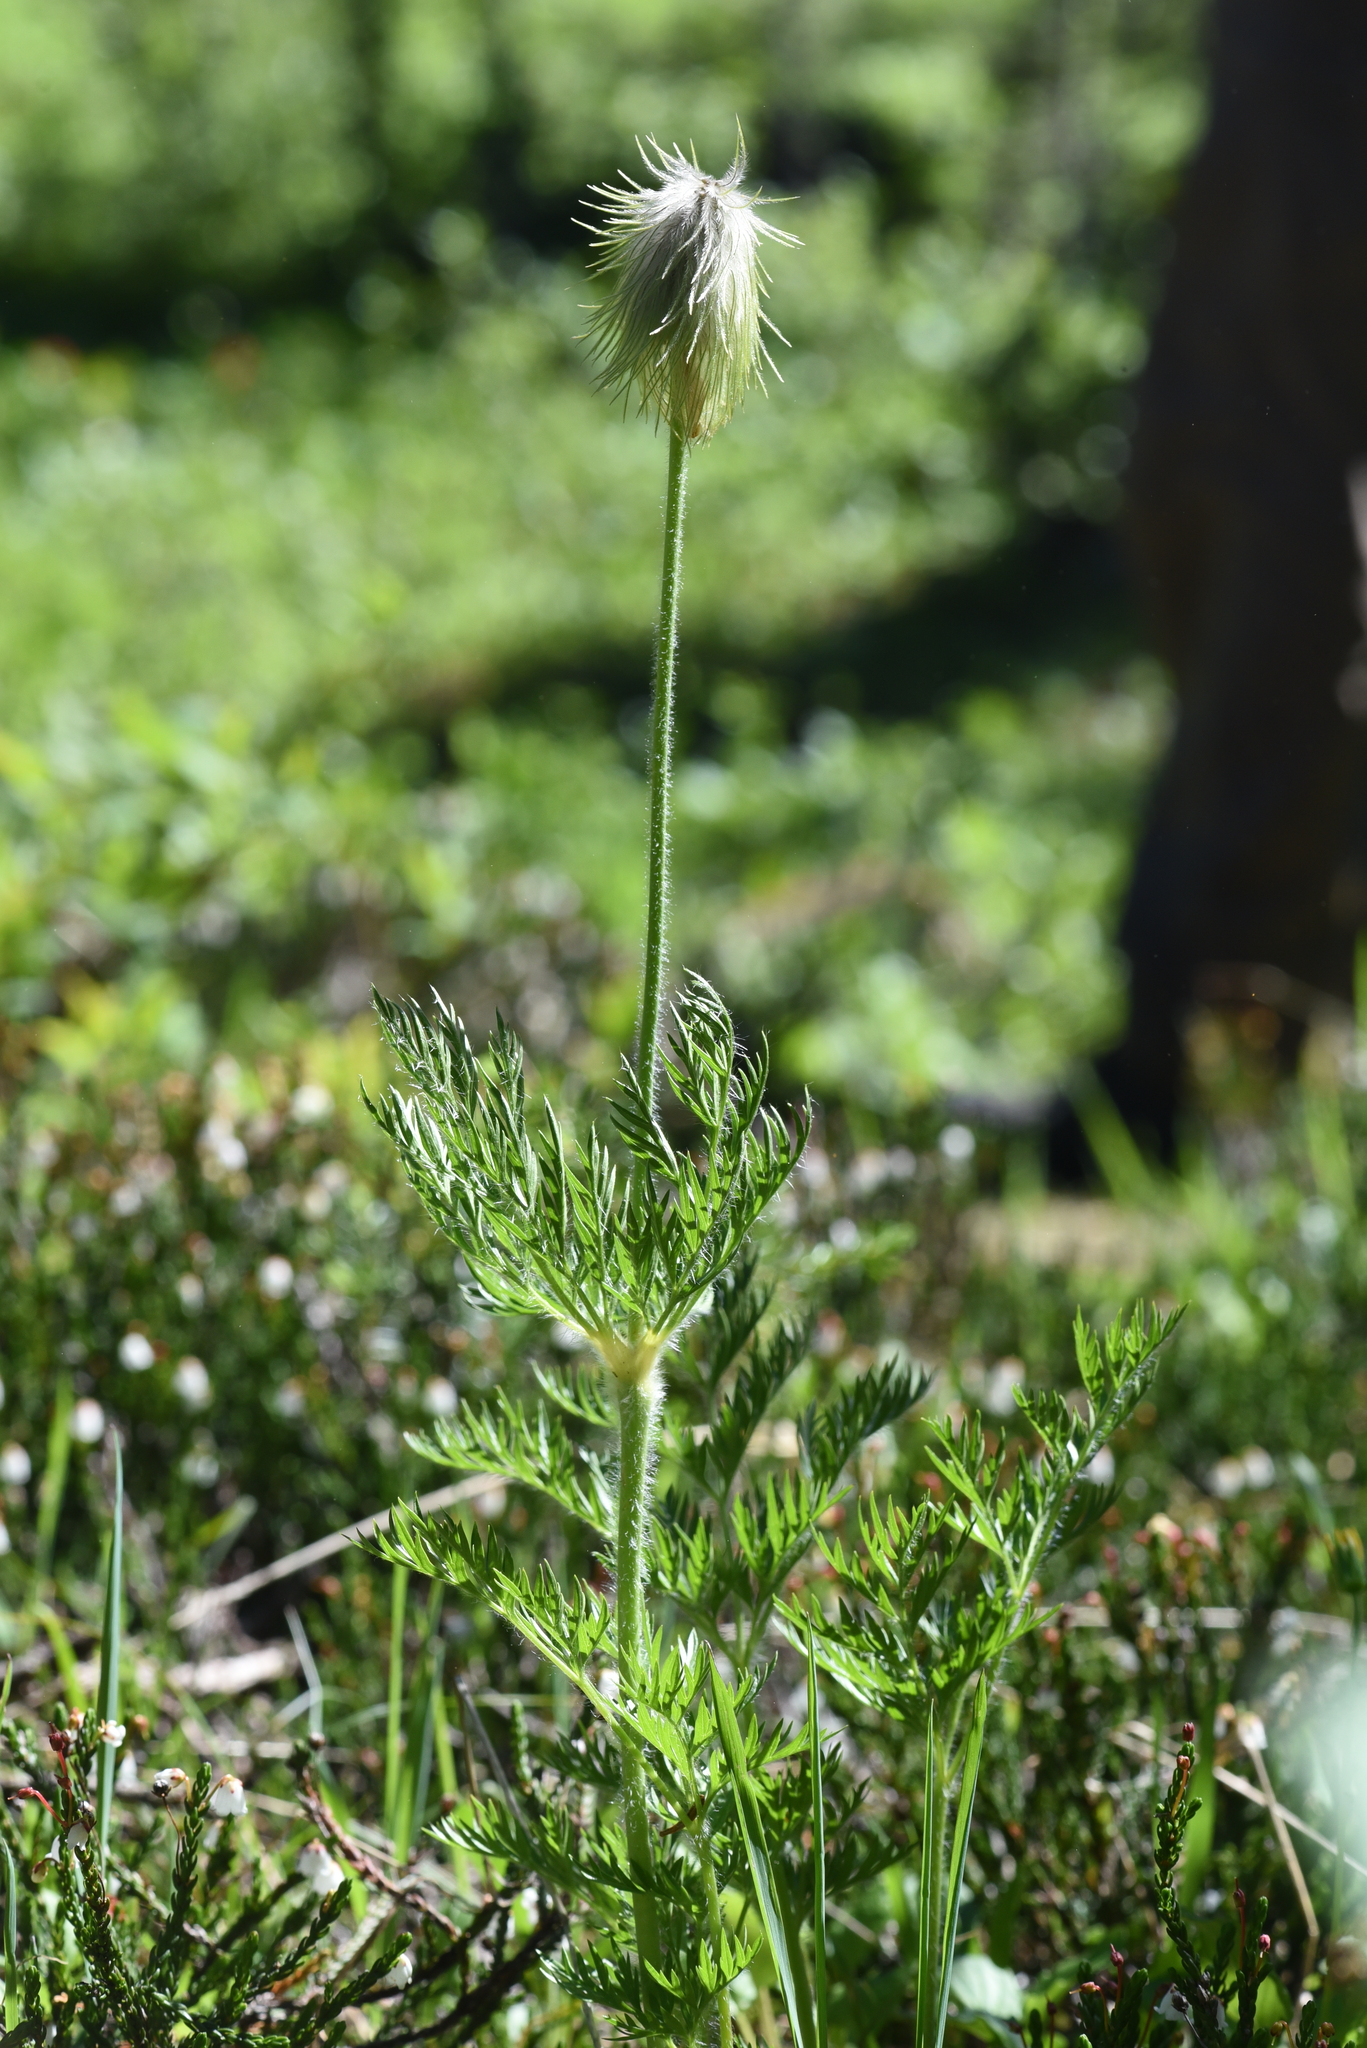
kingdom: Plantae
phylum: Tracheophyta
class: Magnoliopsida
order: Ranunculales
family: Ranunculaceae
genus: Pulsatilla
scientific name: Pulsatilla occidentalis
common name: Mountain pasqueflower
